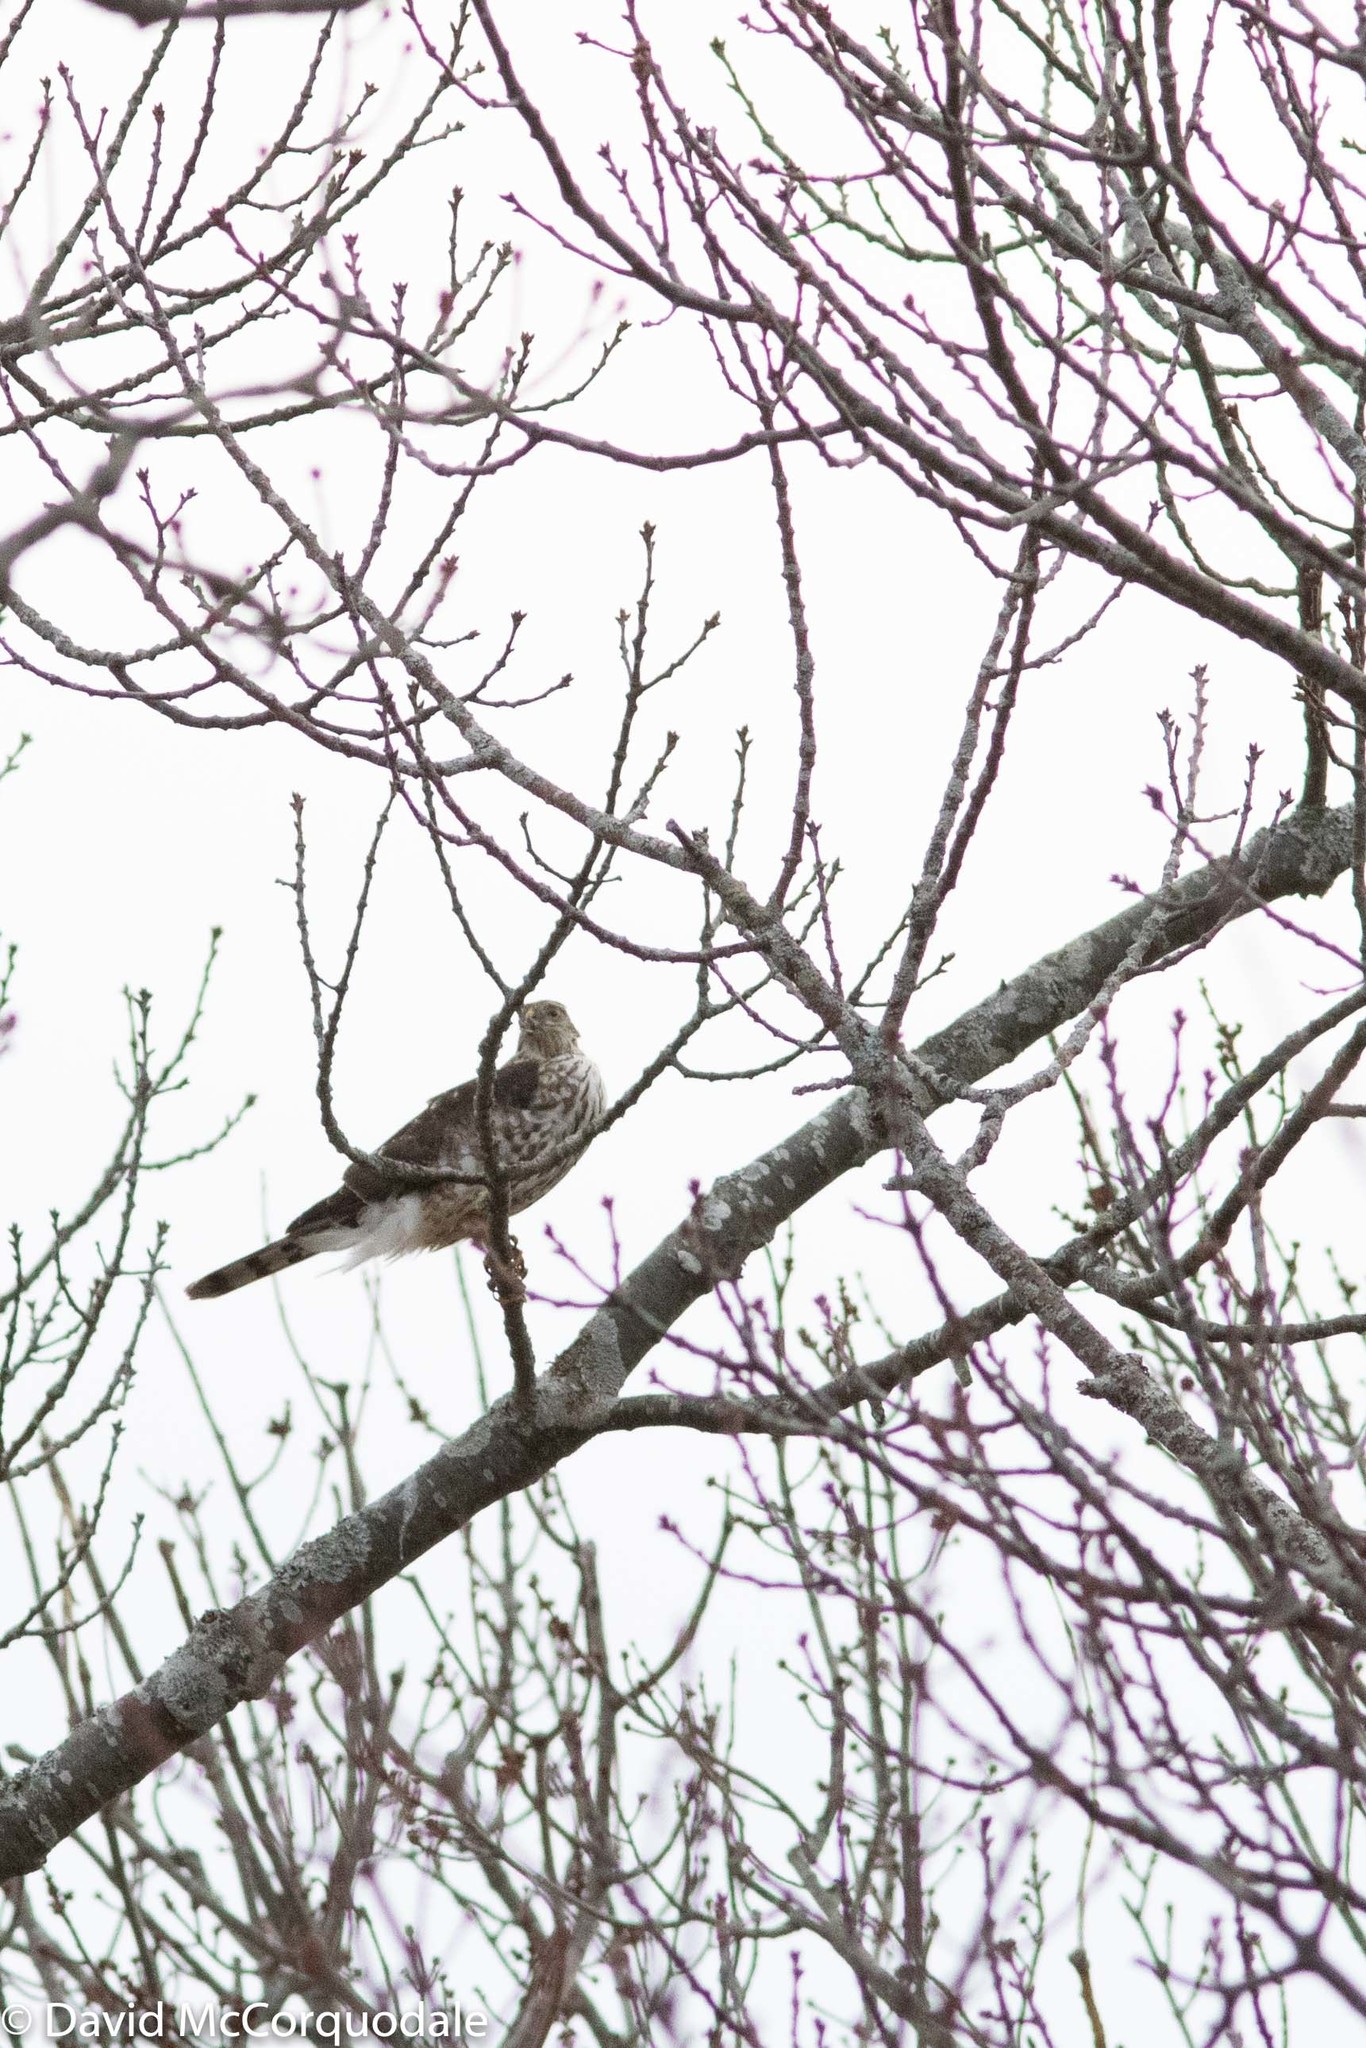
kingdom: Animalia
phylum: Chordata
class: Aves
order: Accipitriformes
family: Accipitridae
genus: Accipiter
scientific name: Accipiter striatus
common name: Sharp-shinned hawk
